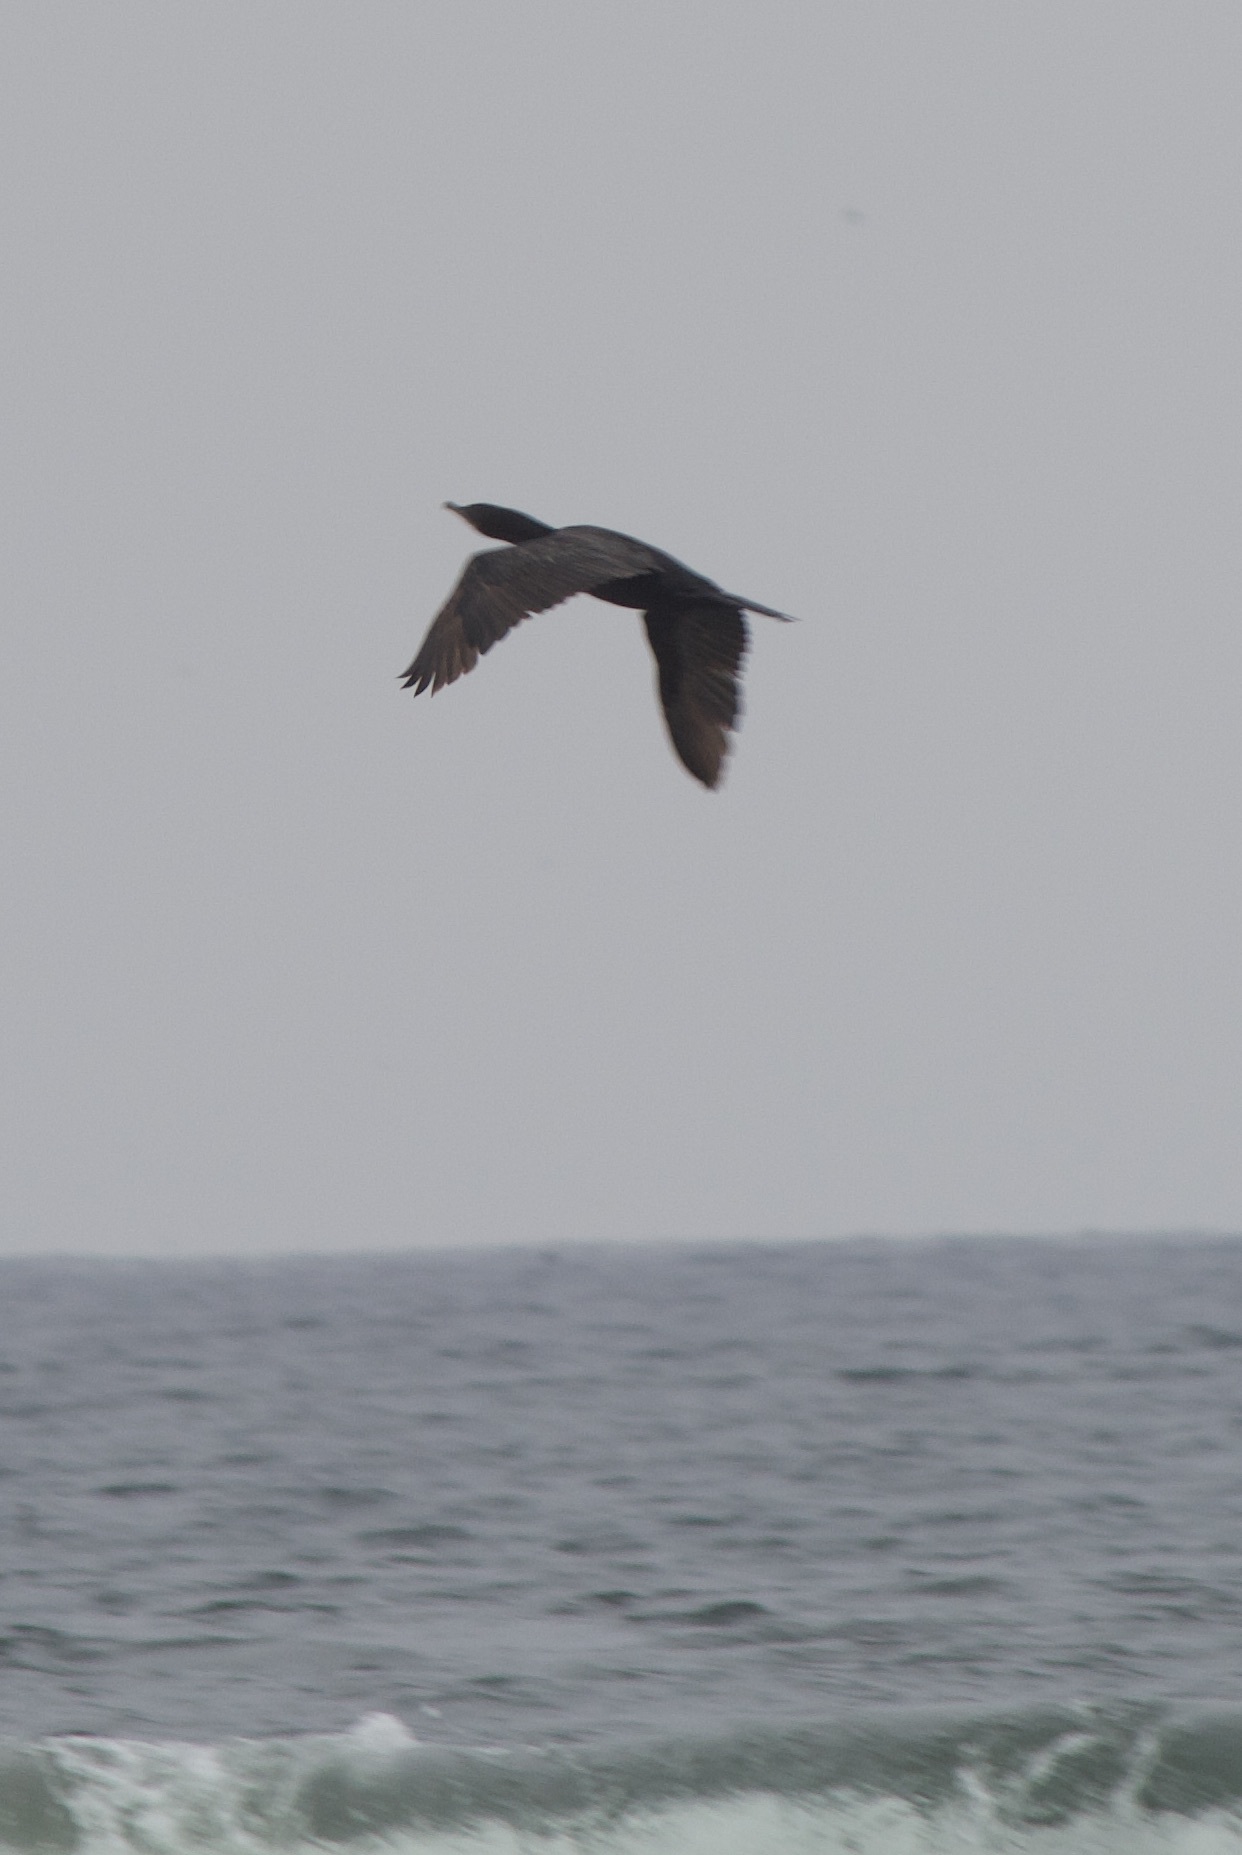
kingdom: Animalia
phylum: Chordata
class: Aves
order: Suliformes
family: Phalacrocoracidae
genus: Phalacrocorax
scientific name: Phalacrocorax brasilianus
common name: Neotropic cormorant
